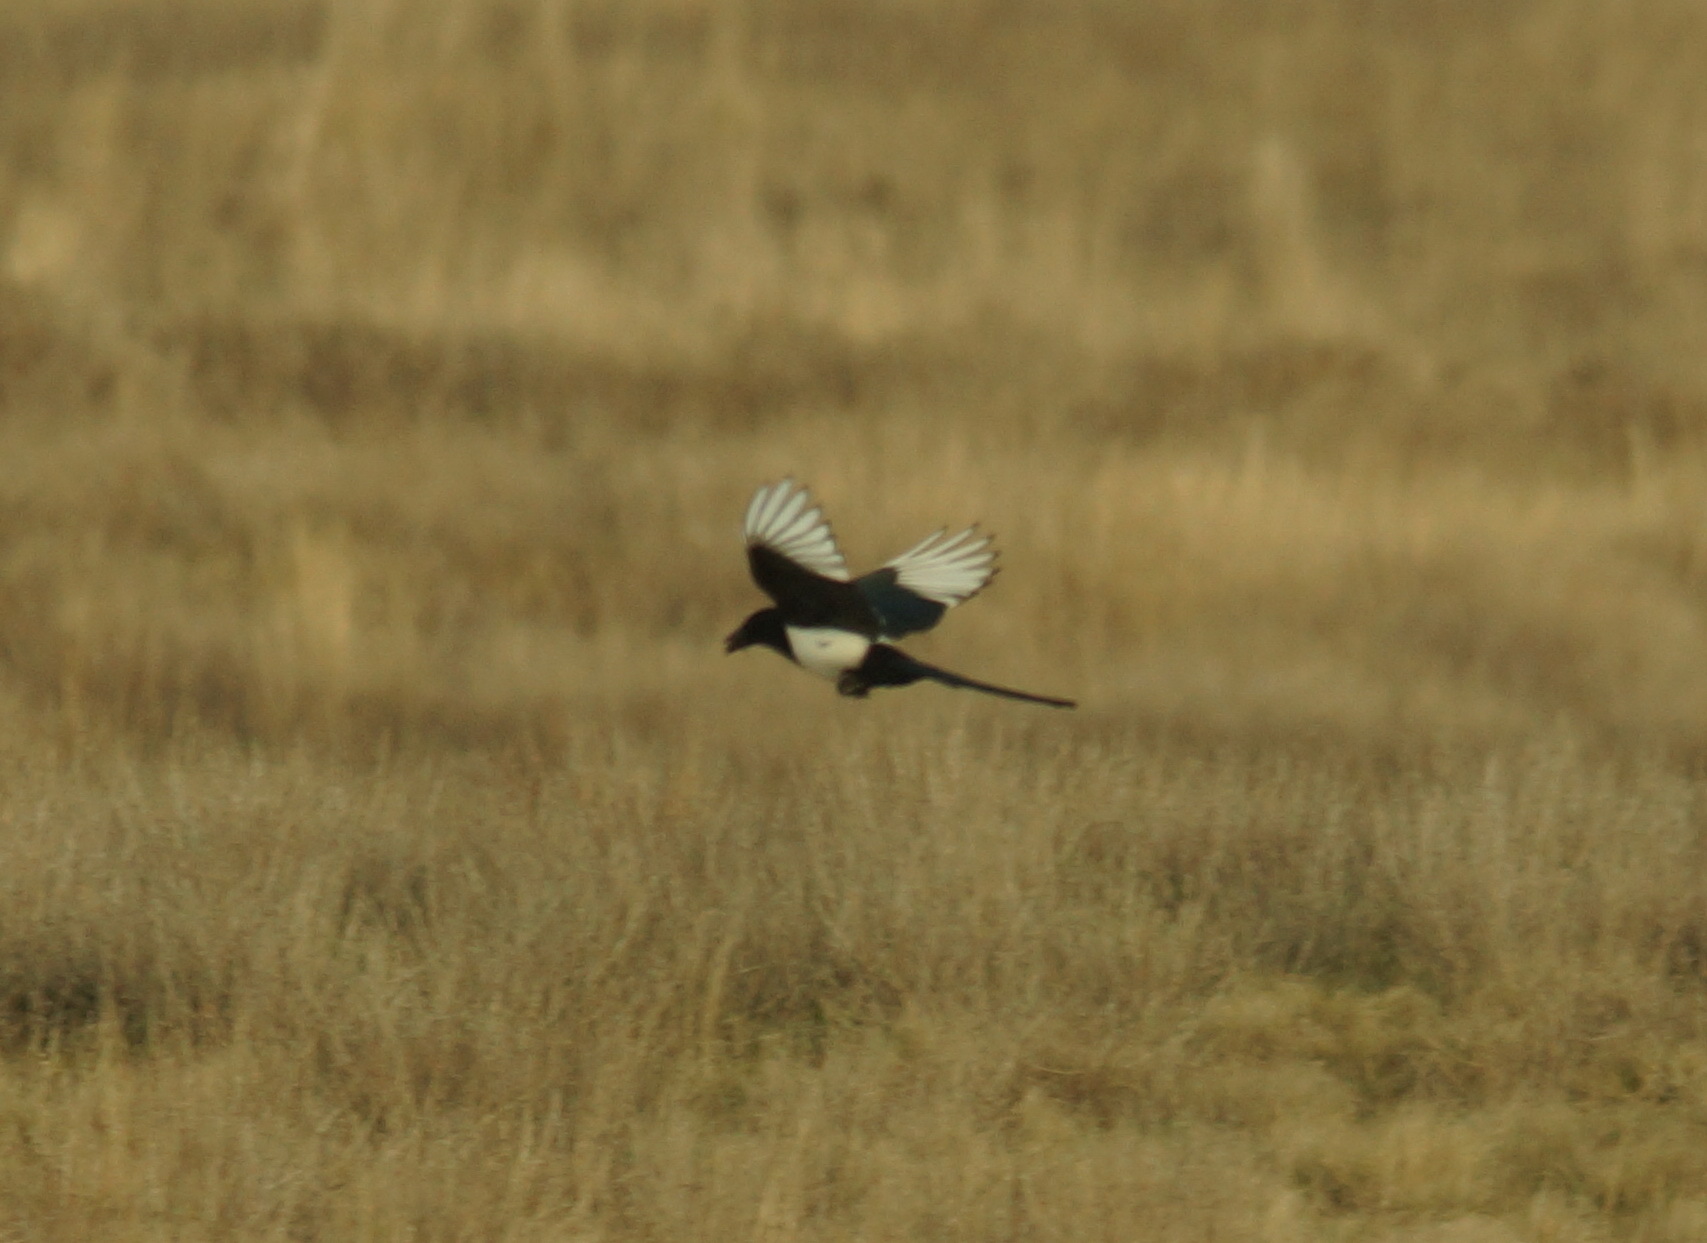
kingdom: Animalia
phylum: Chordata
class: Aves
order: Passeriformes
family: Corvidae
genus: Pica
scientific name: Pica pica
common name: Eurasian magpie
